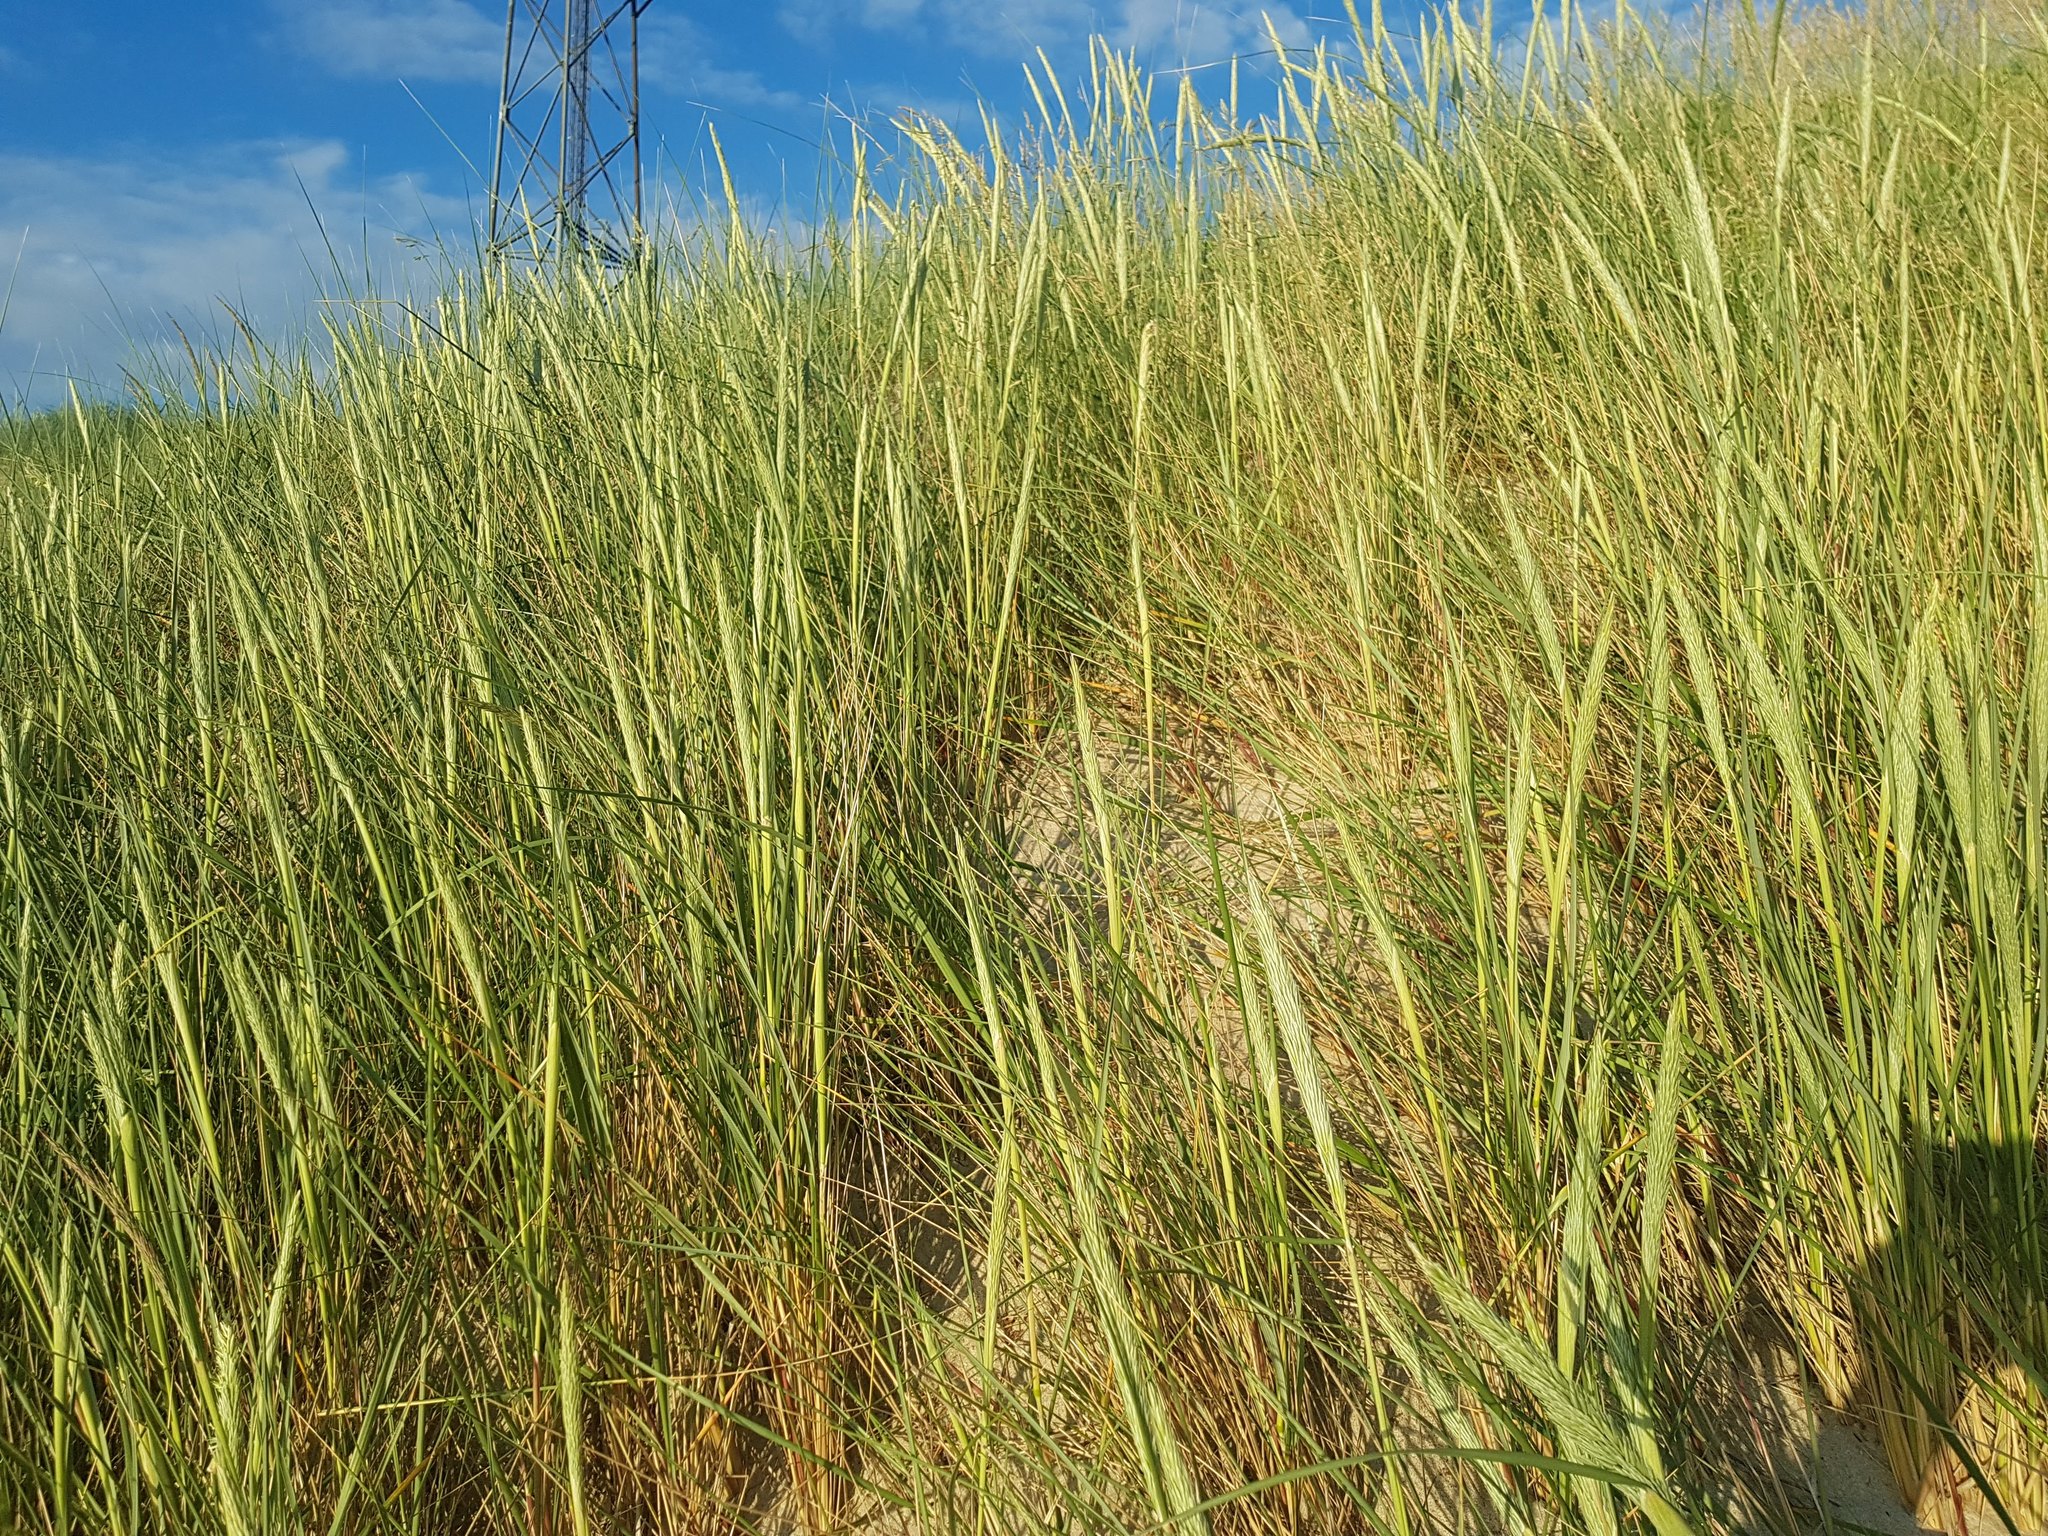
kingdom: Plantae
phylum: Tracheophyta
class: Liliopsida
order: Poales
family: Poaceae
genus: Calamagrostis
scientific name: Calamagrostis arenaria
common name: European beachgrass
